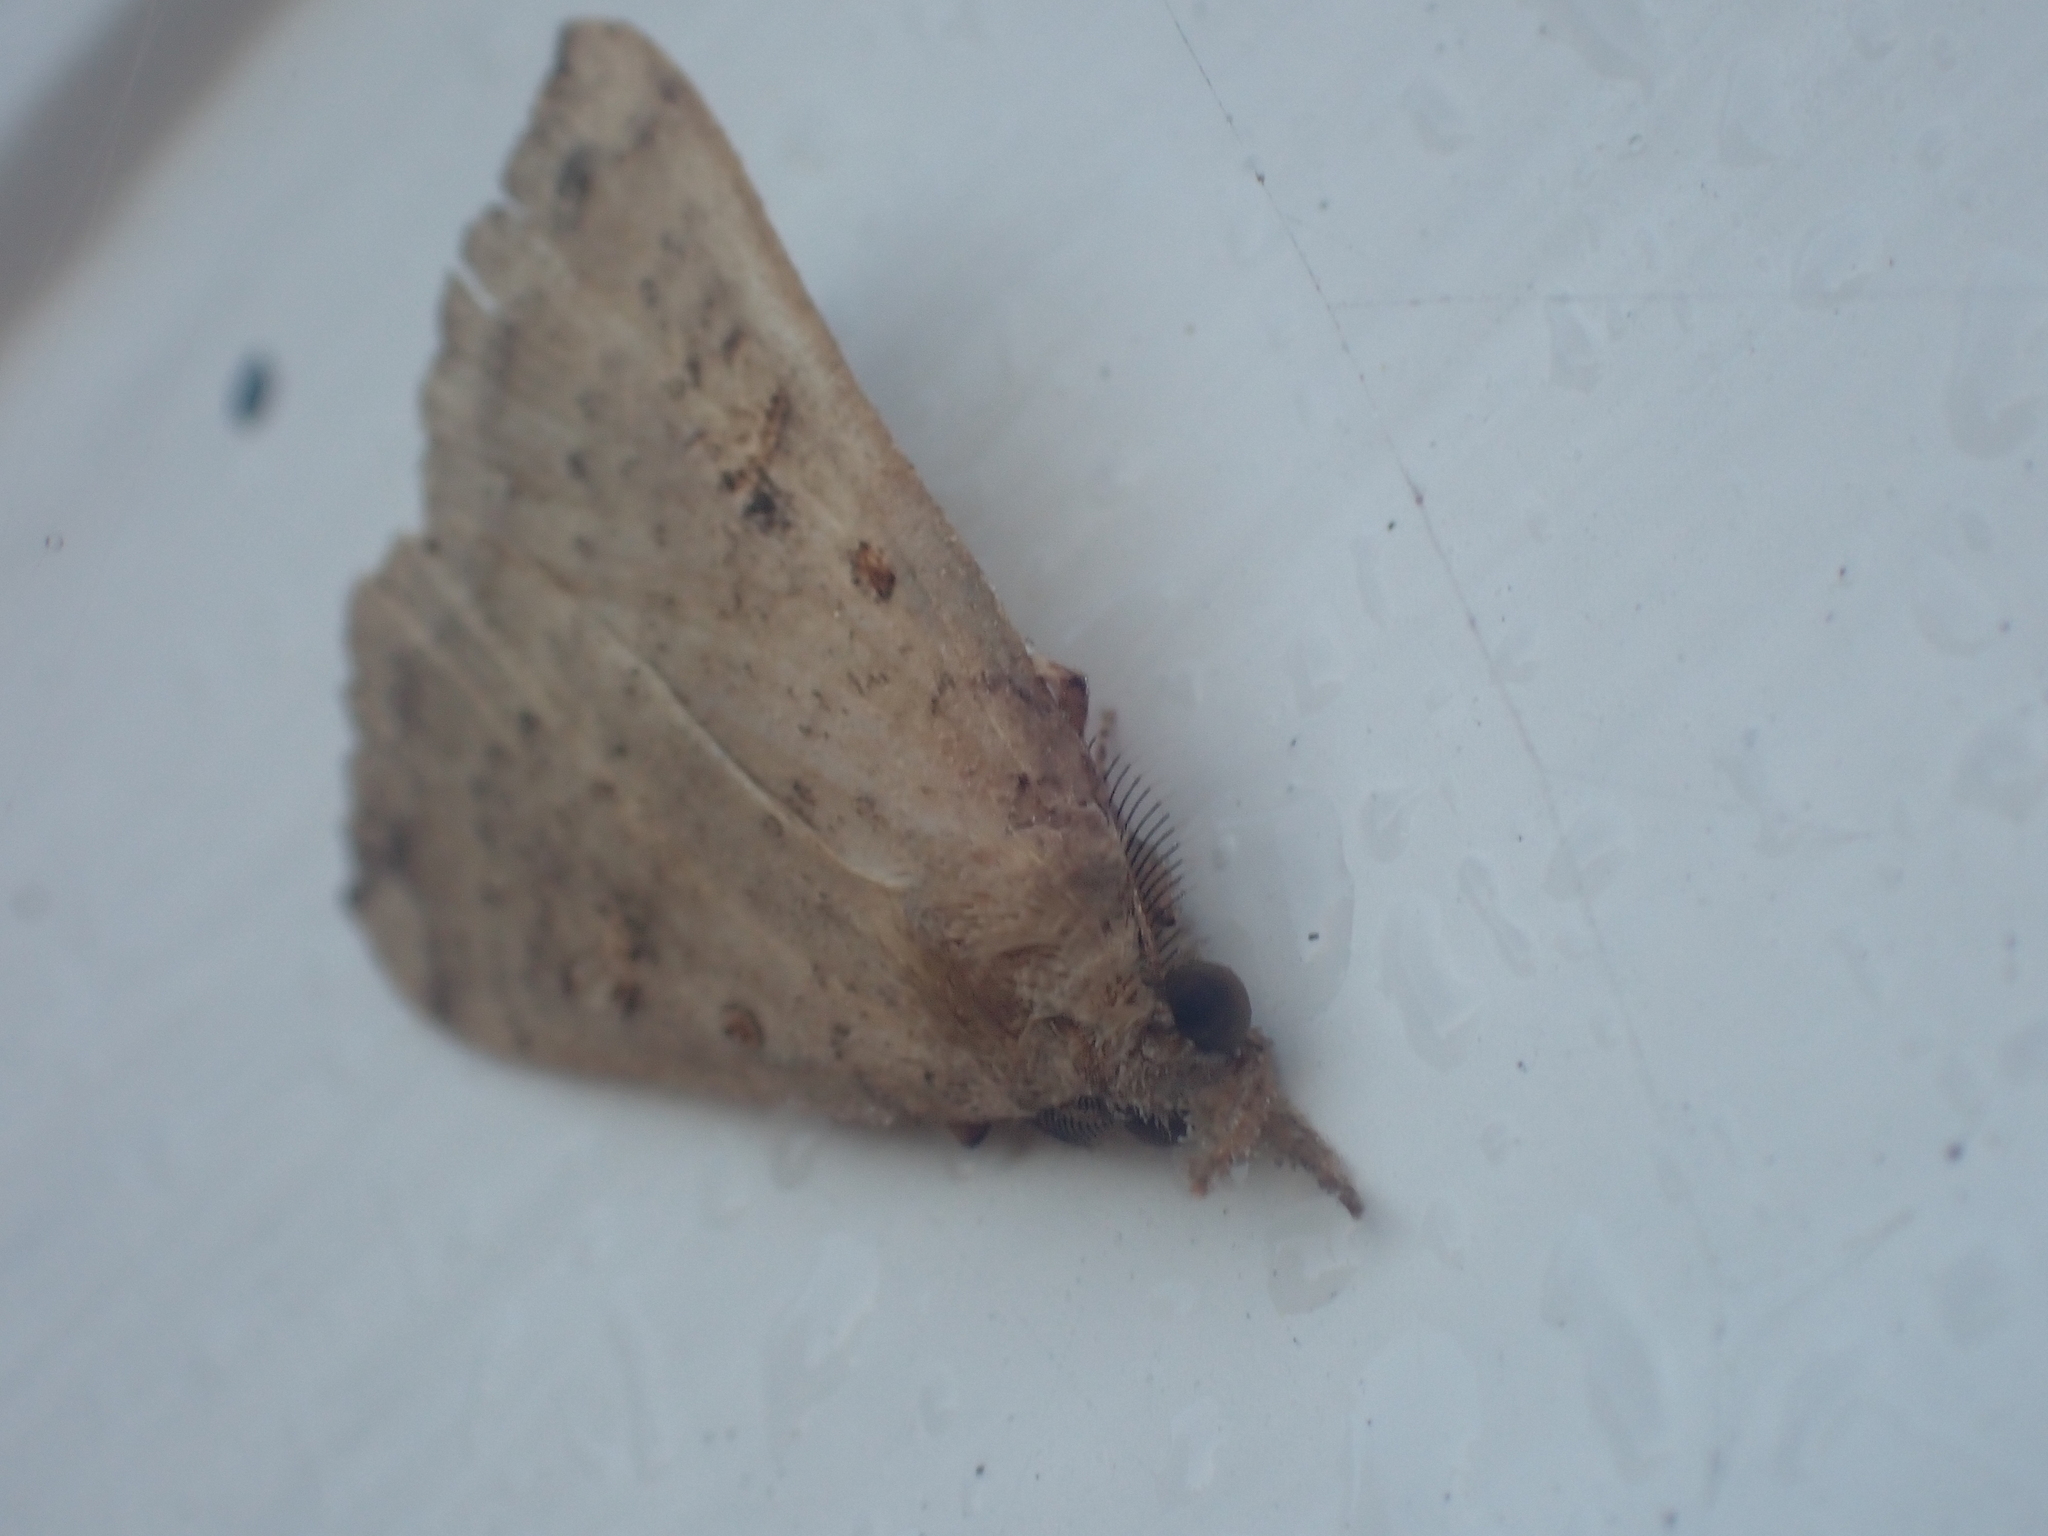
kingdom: Animalia
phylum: Arthropoda
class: Insecta
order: Lepidoptera
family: Erebidae
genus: Rhapsa
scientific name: Rhapsa scotosialis
